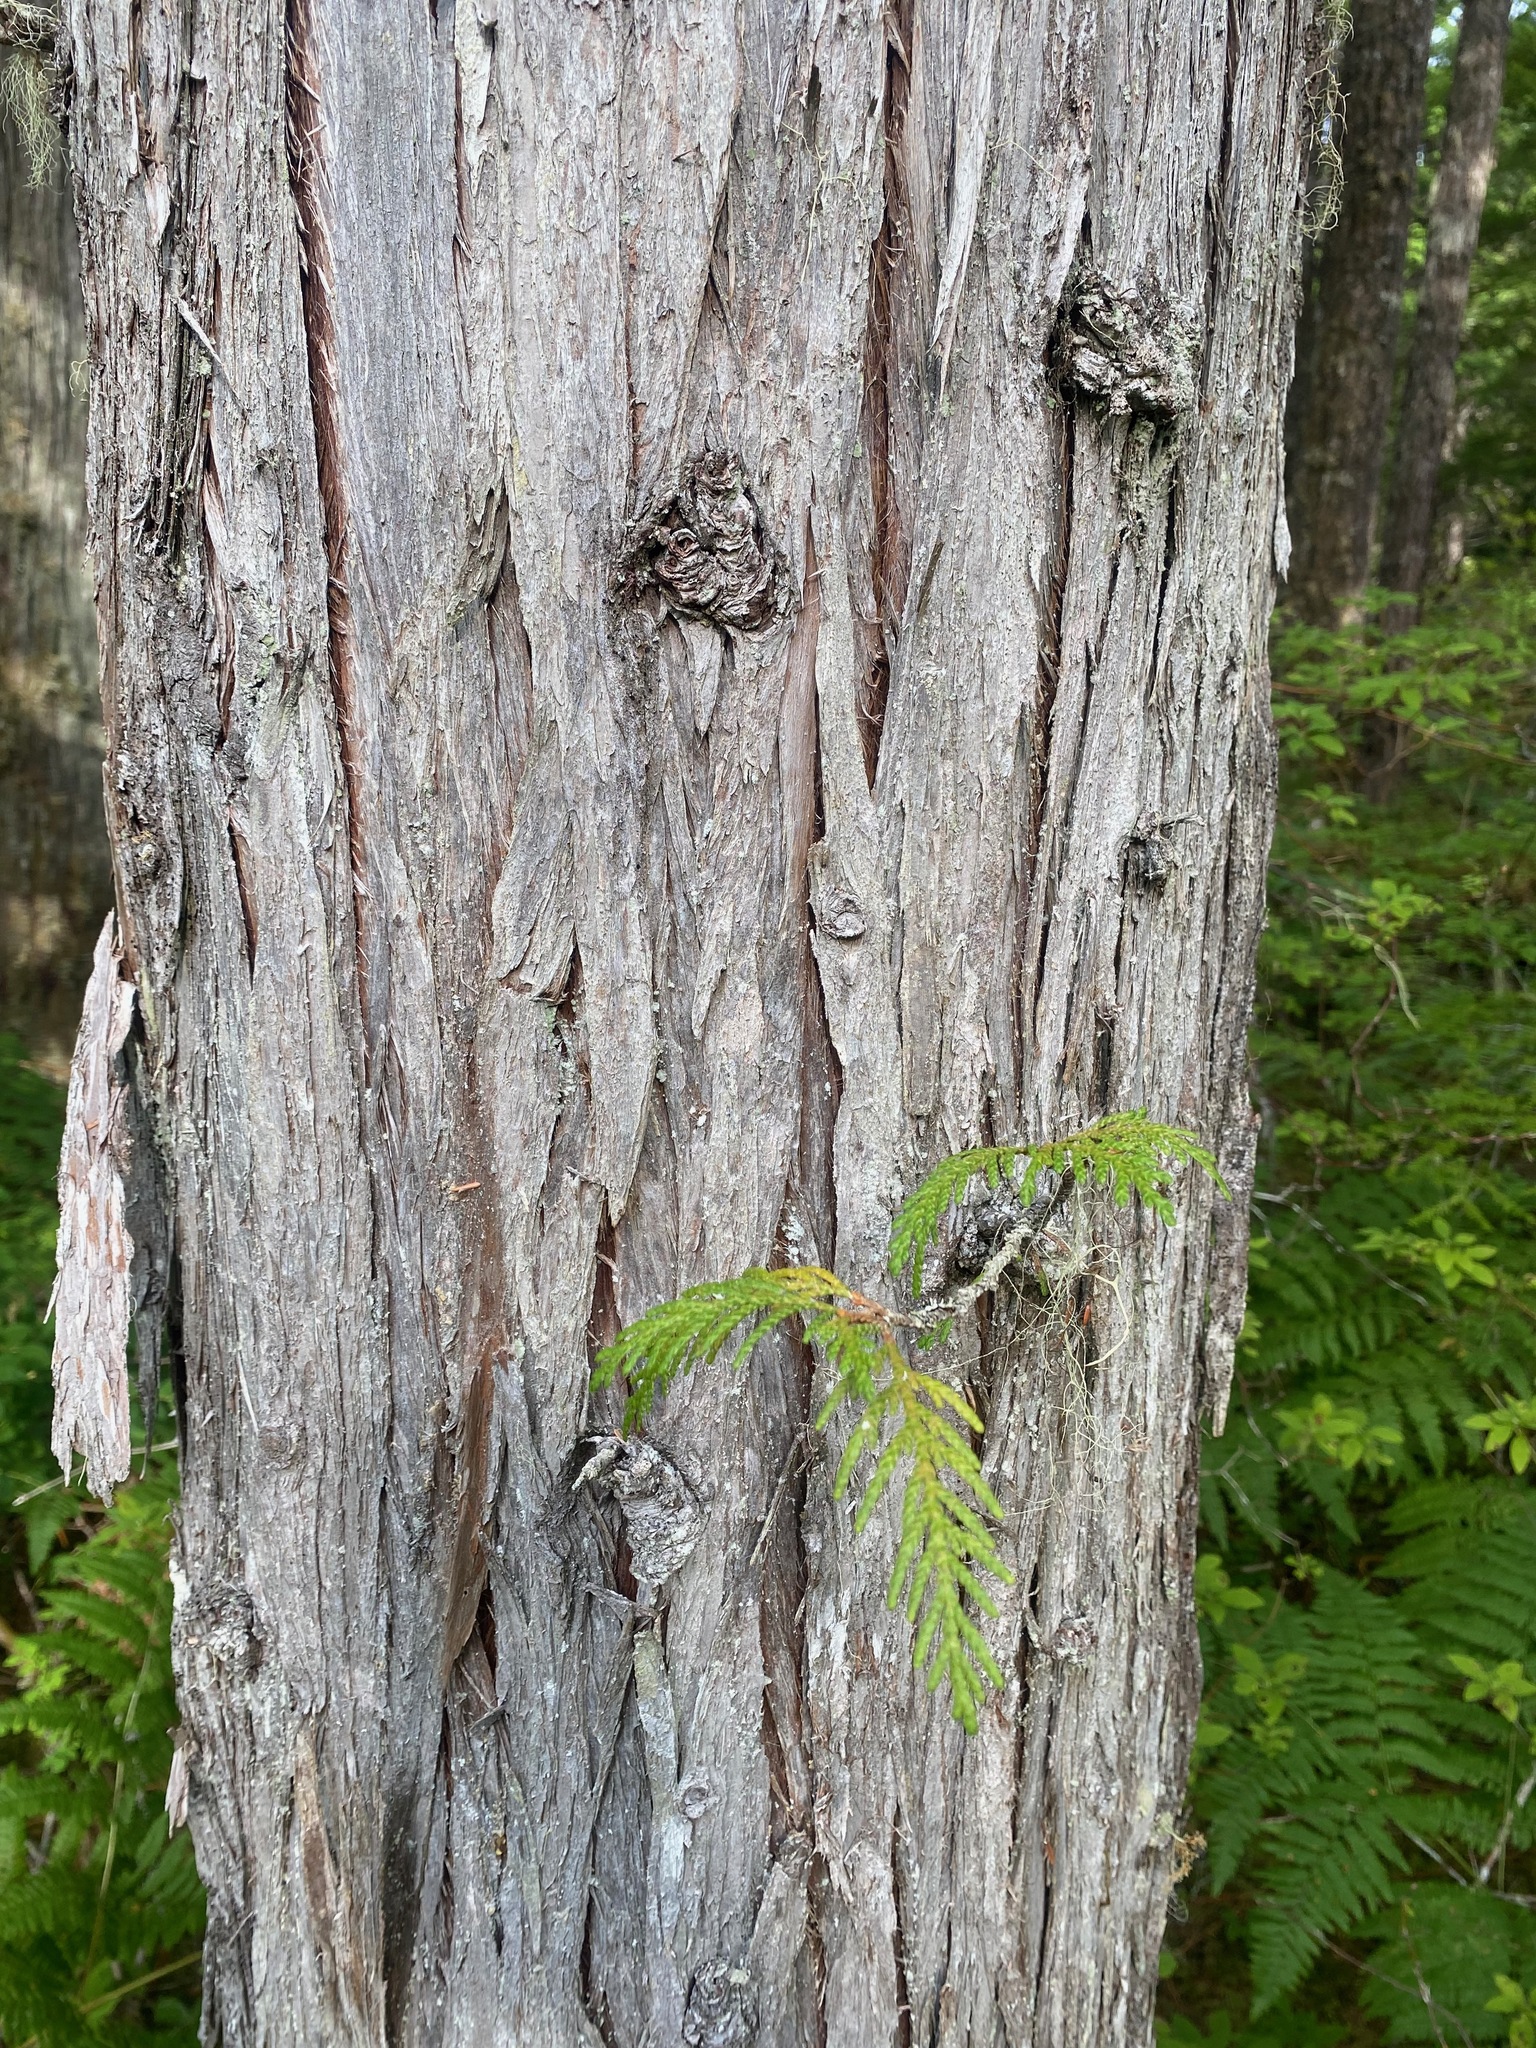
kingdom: Plantae
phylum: Tracheophyta
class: Pinopsida
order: Pinales
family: Cupressaceae
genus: Thuja
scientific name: Thuja plicata
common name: Western red-cedar
